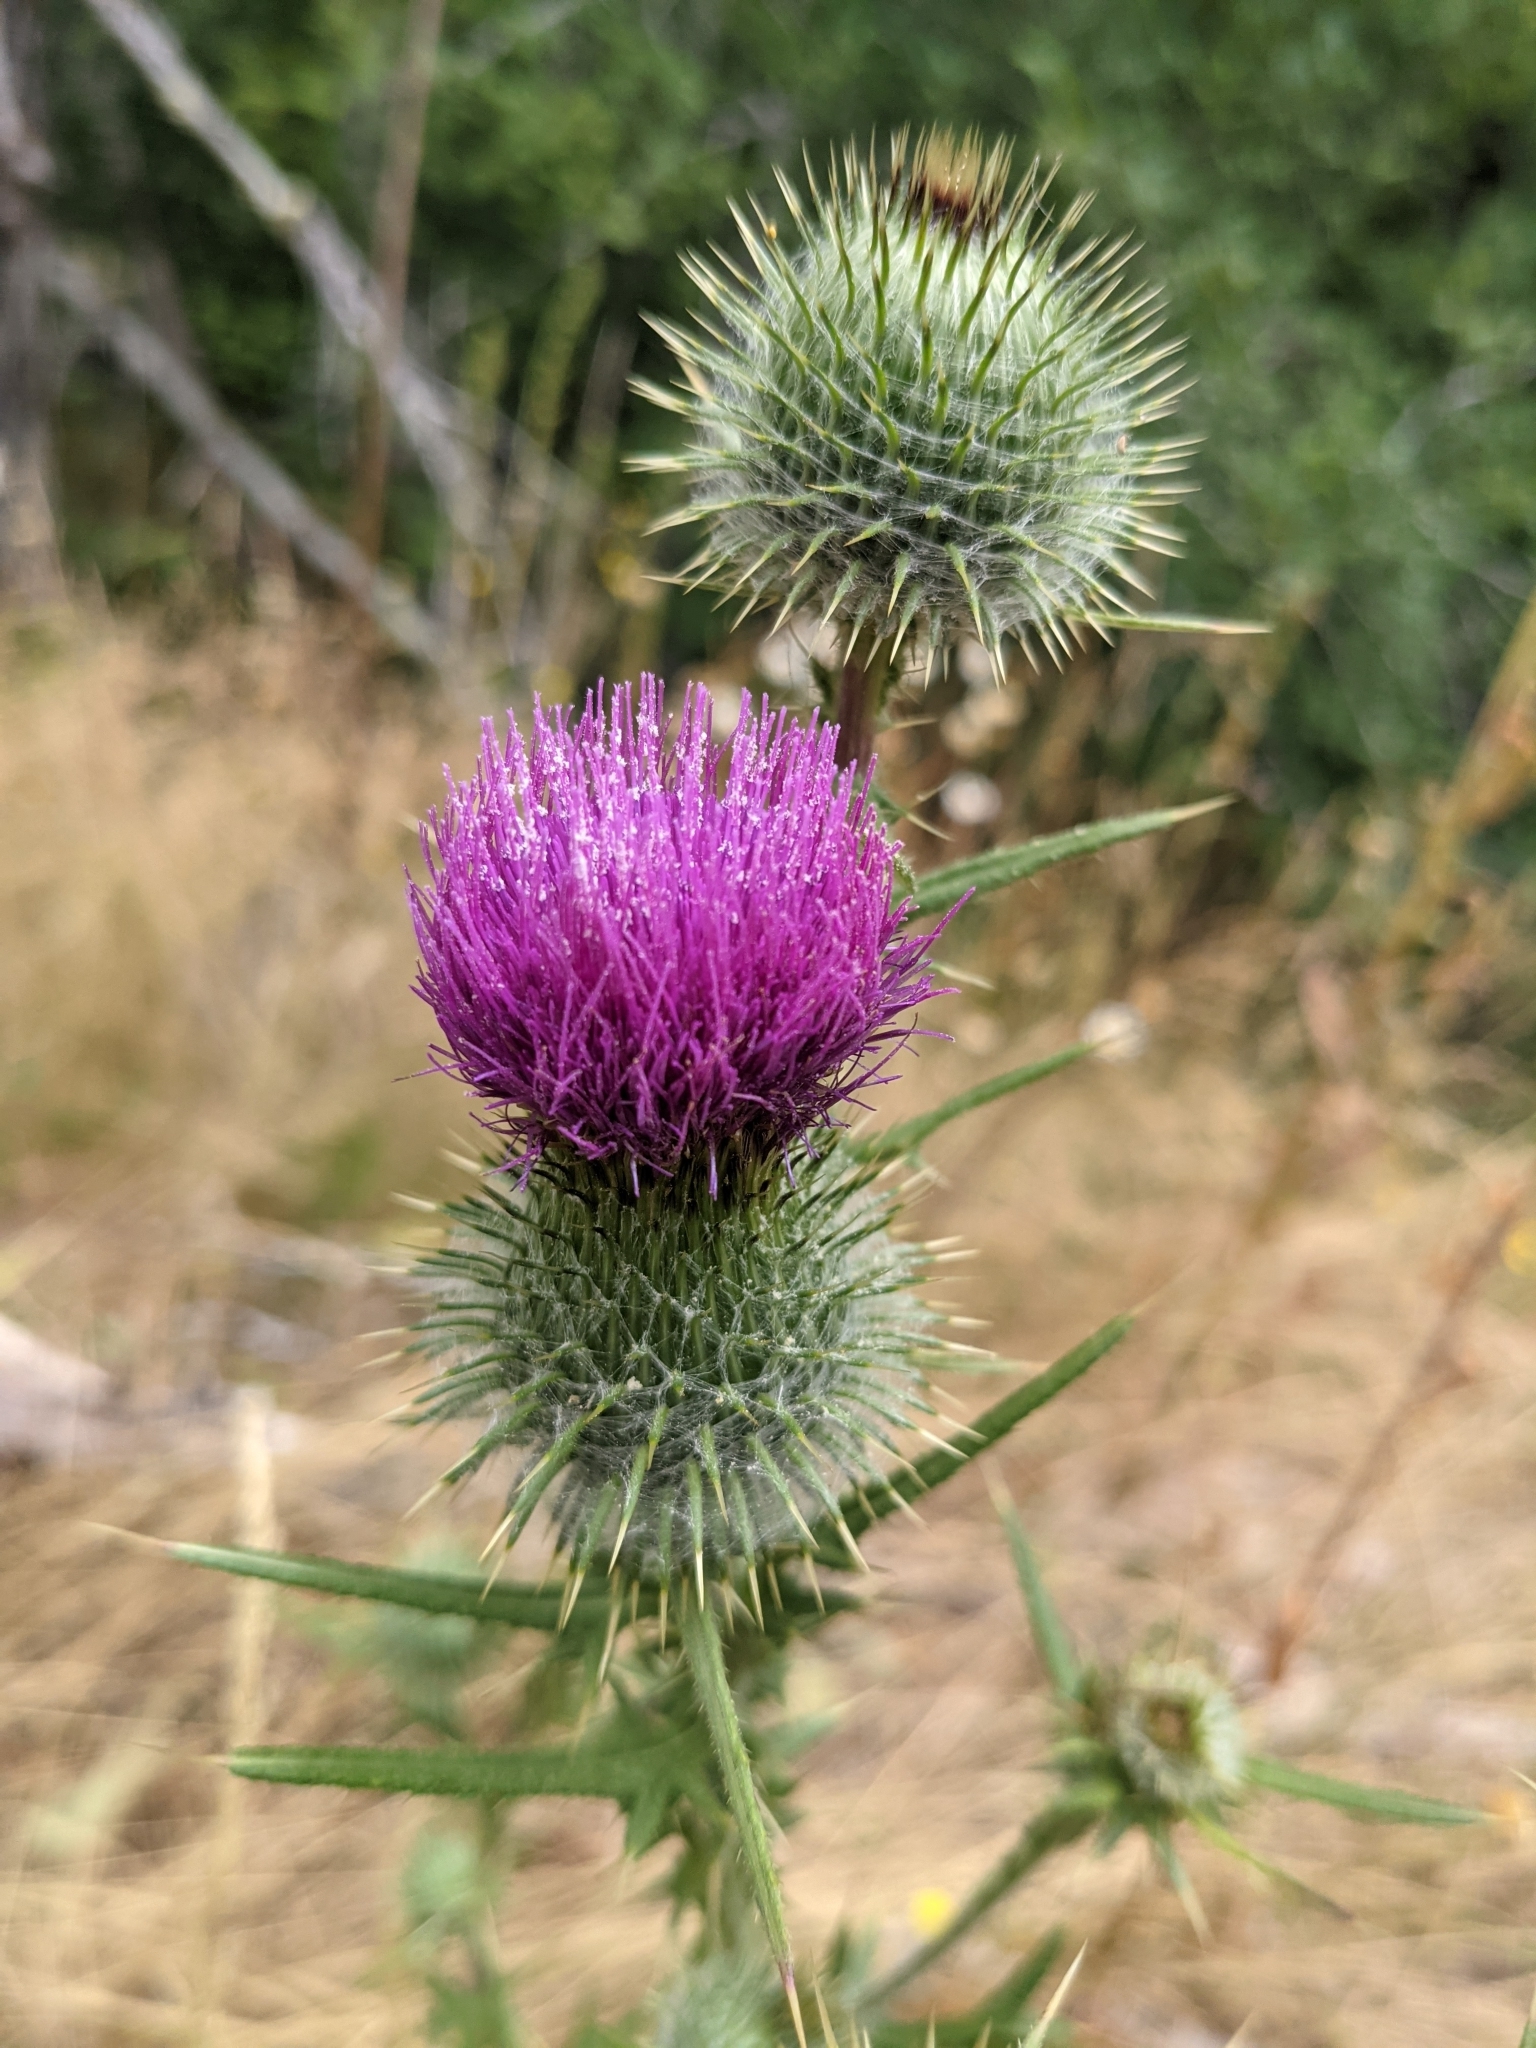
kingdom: Plantae
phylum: Tracheophyta
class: Magnoliopsida
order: Asterales
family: Asteraceae
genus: Cirsium
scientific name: Cirsium vulgare
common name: Bull thistle
